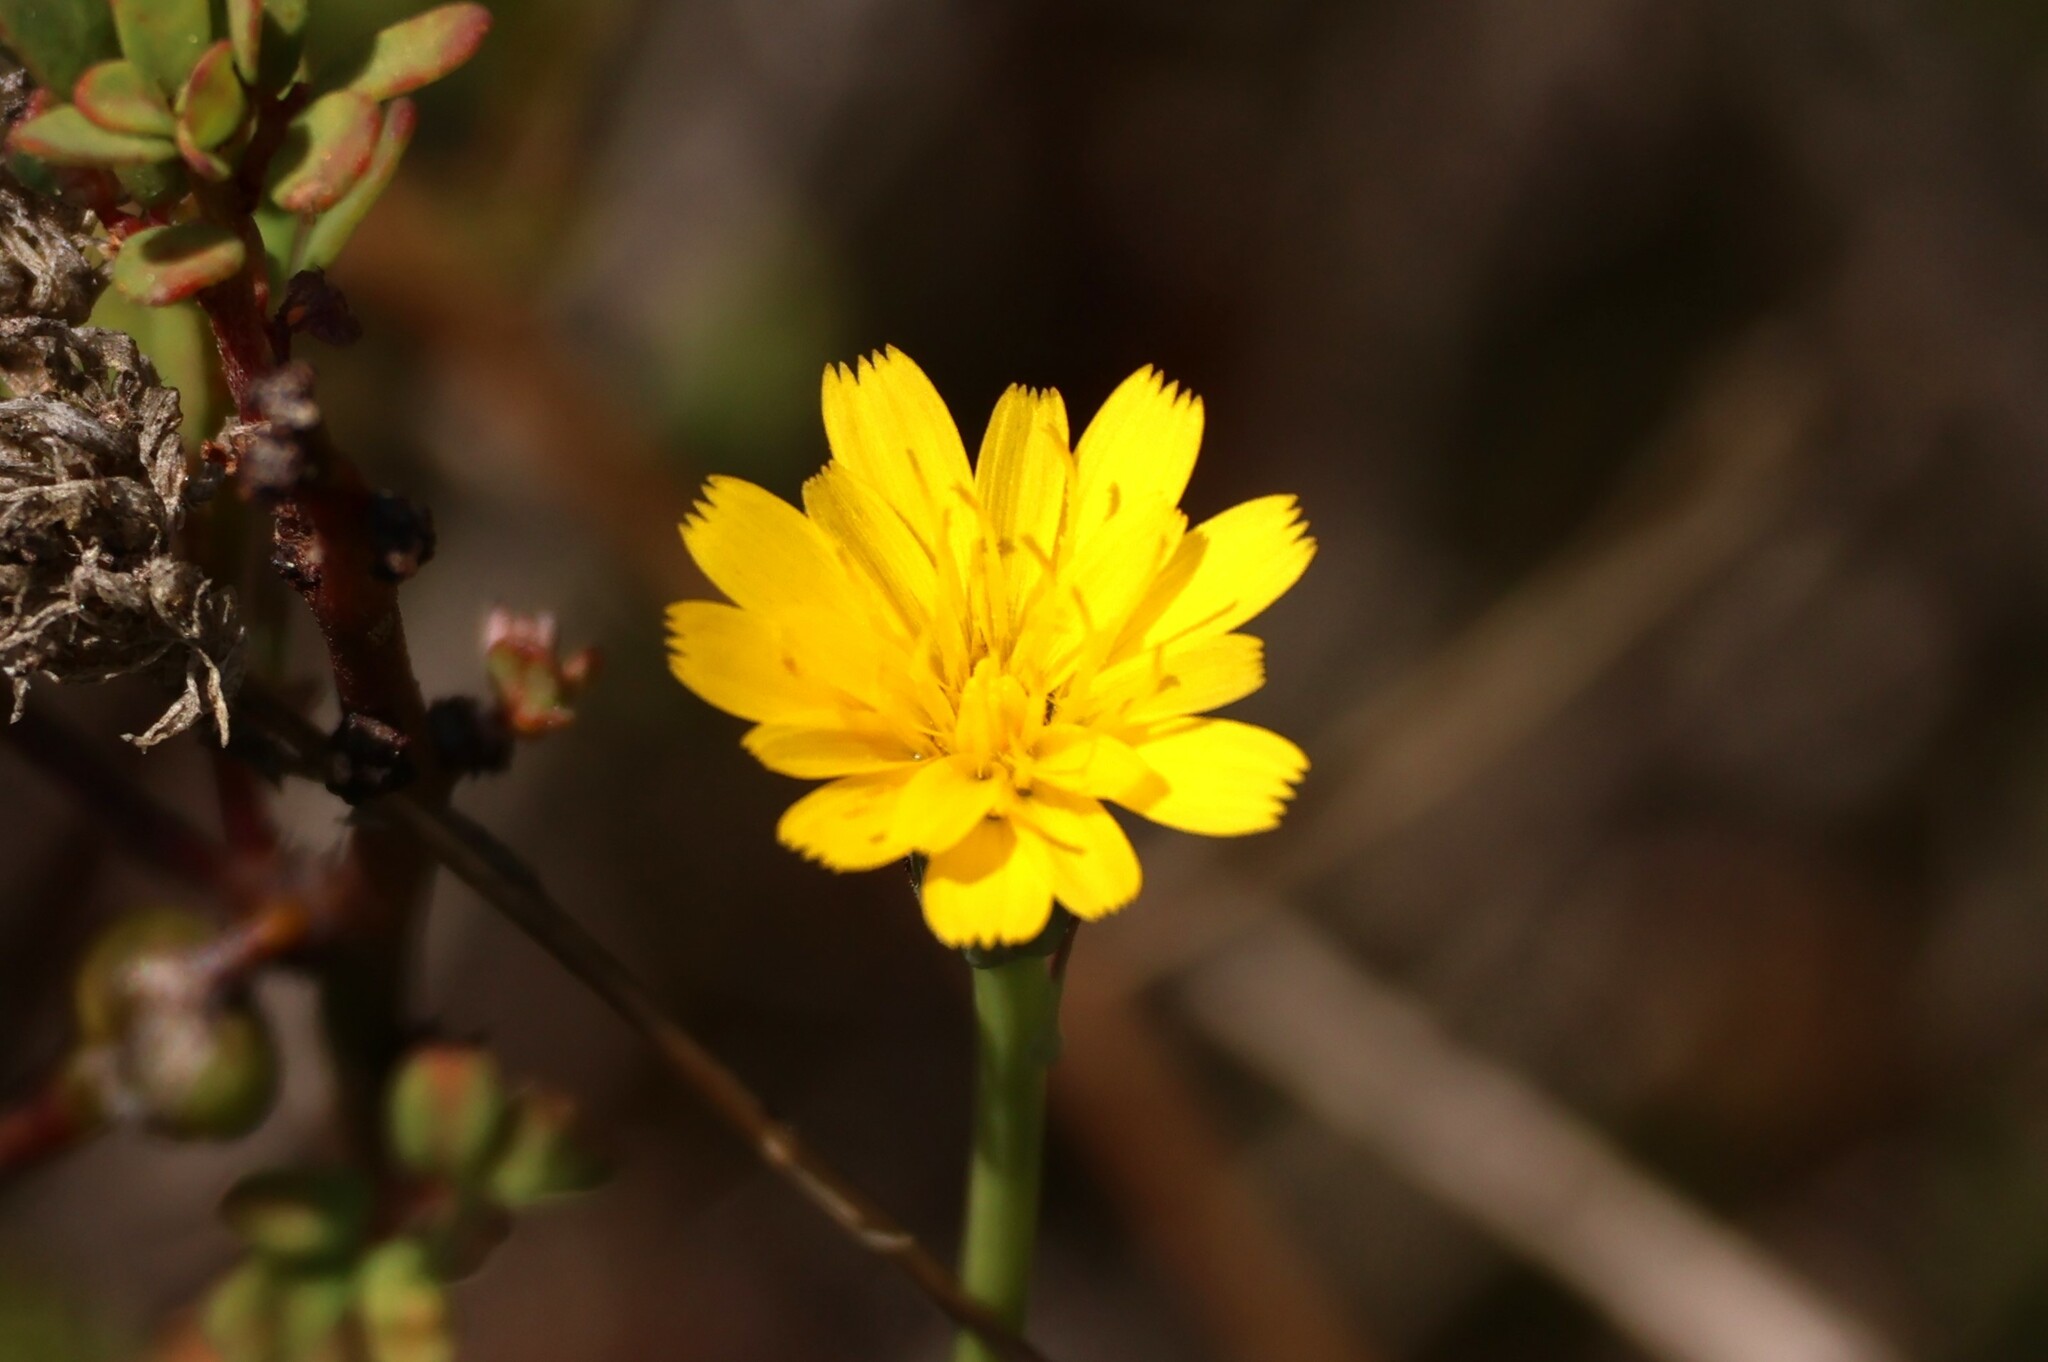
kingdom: Plantae
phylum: Tracheophyta
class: Magnoliopsida
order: Asterales
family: Asteraceae
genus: Hypochaeris
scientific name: Hypochaeris glabra
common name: Smooth catsear
